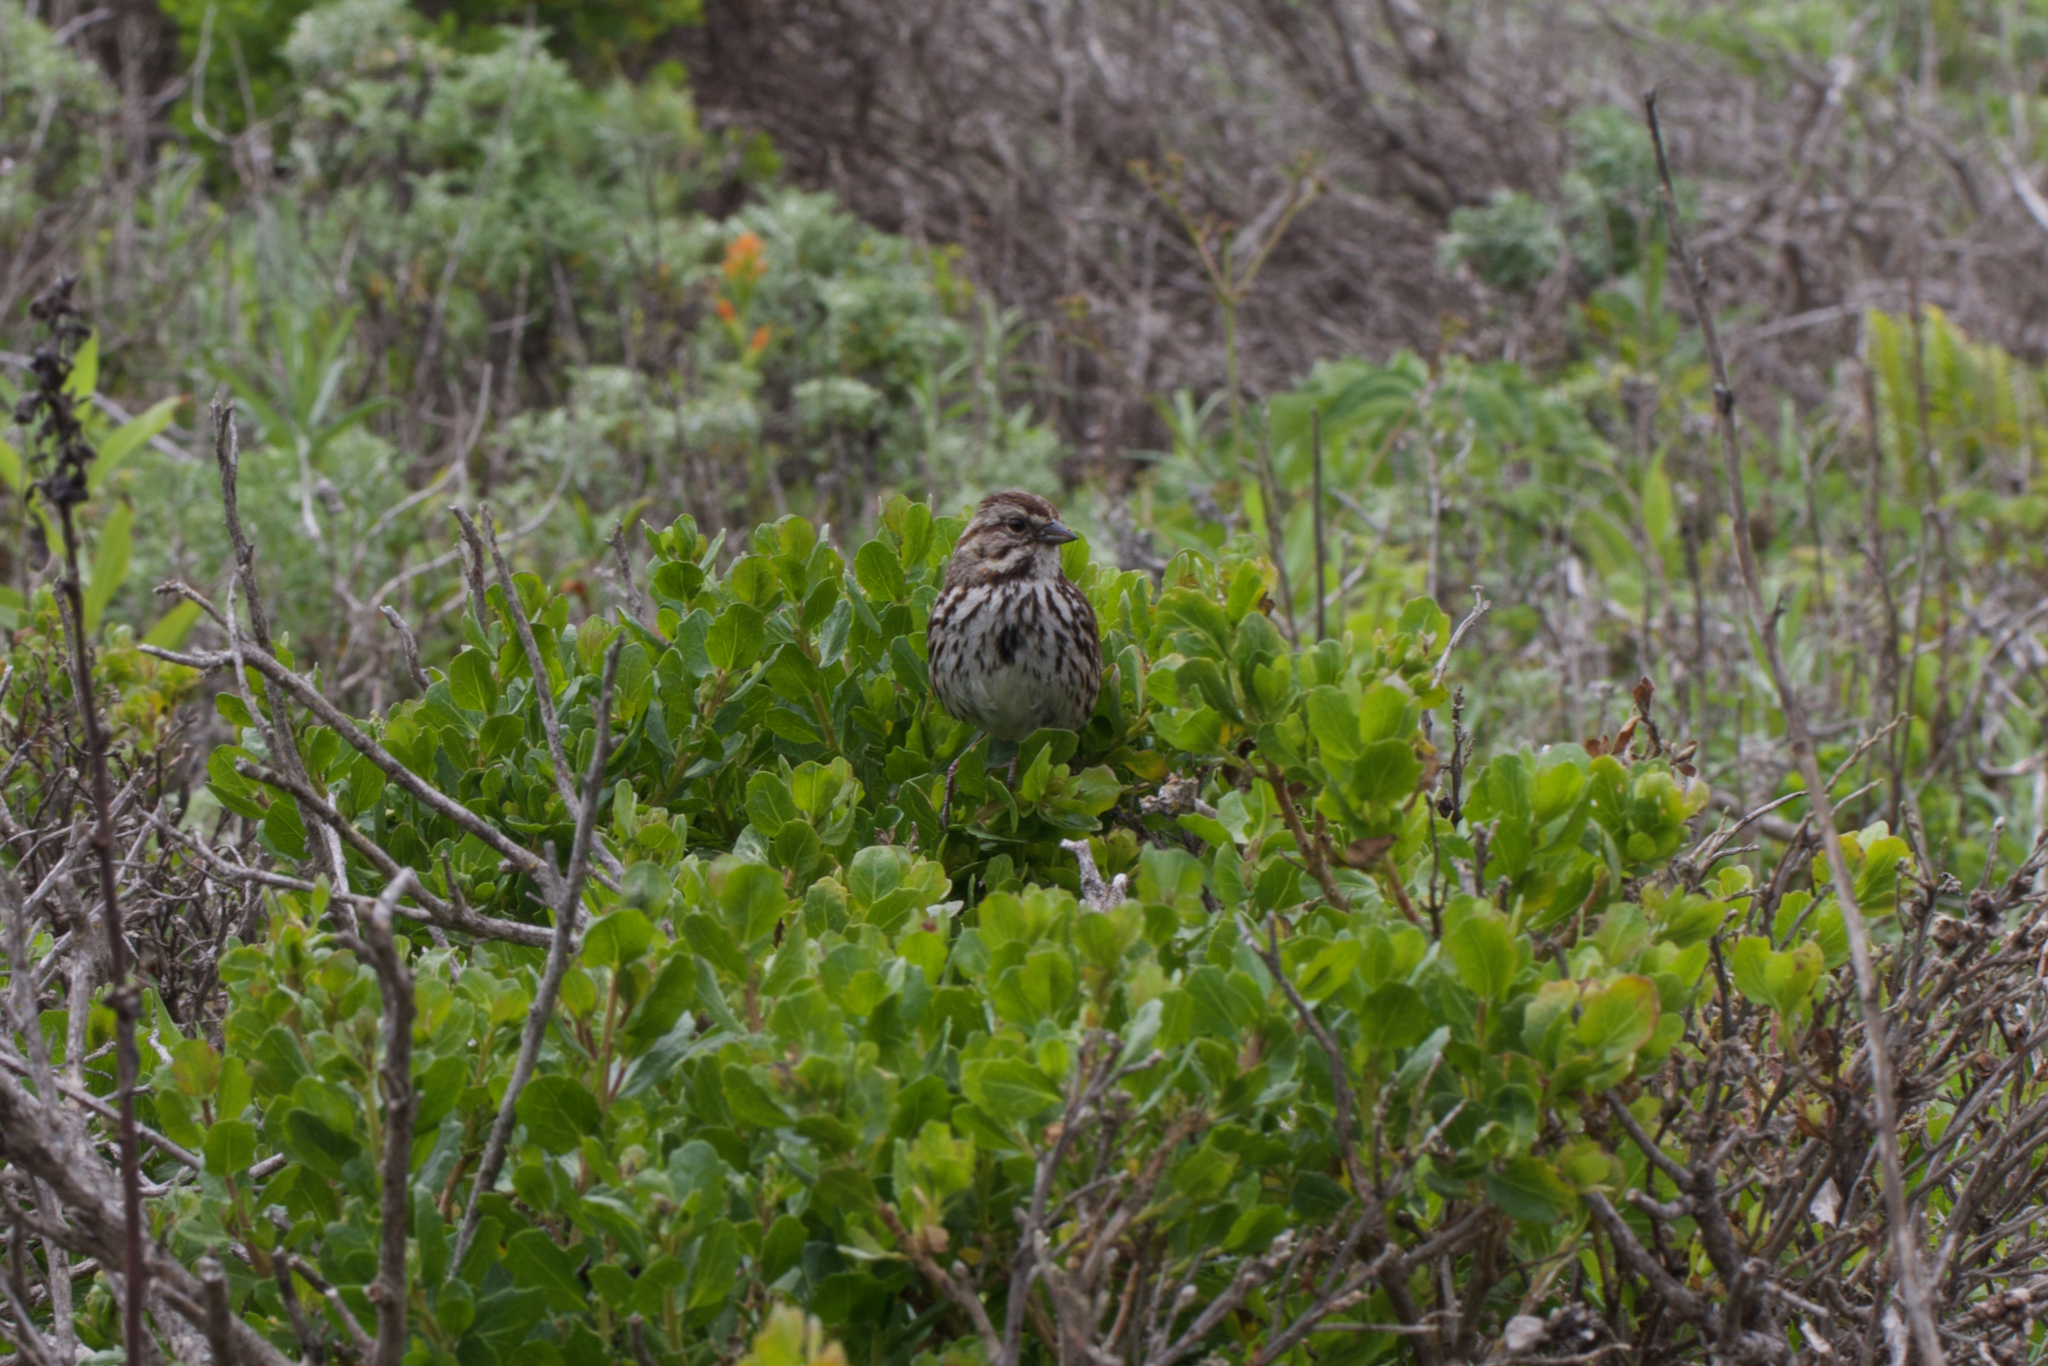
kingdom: Animalia
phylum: Chordata
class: Aves
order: Passeriformes
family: Passerellidae
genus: Melospiza
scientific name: Melospiza melodia
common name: Song sparrow
